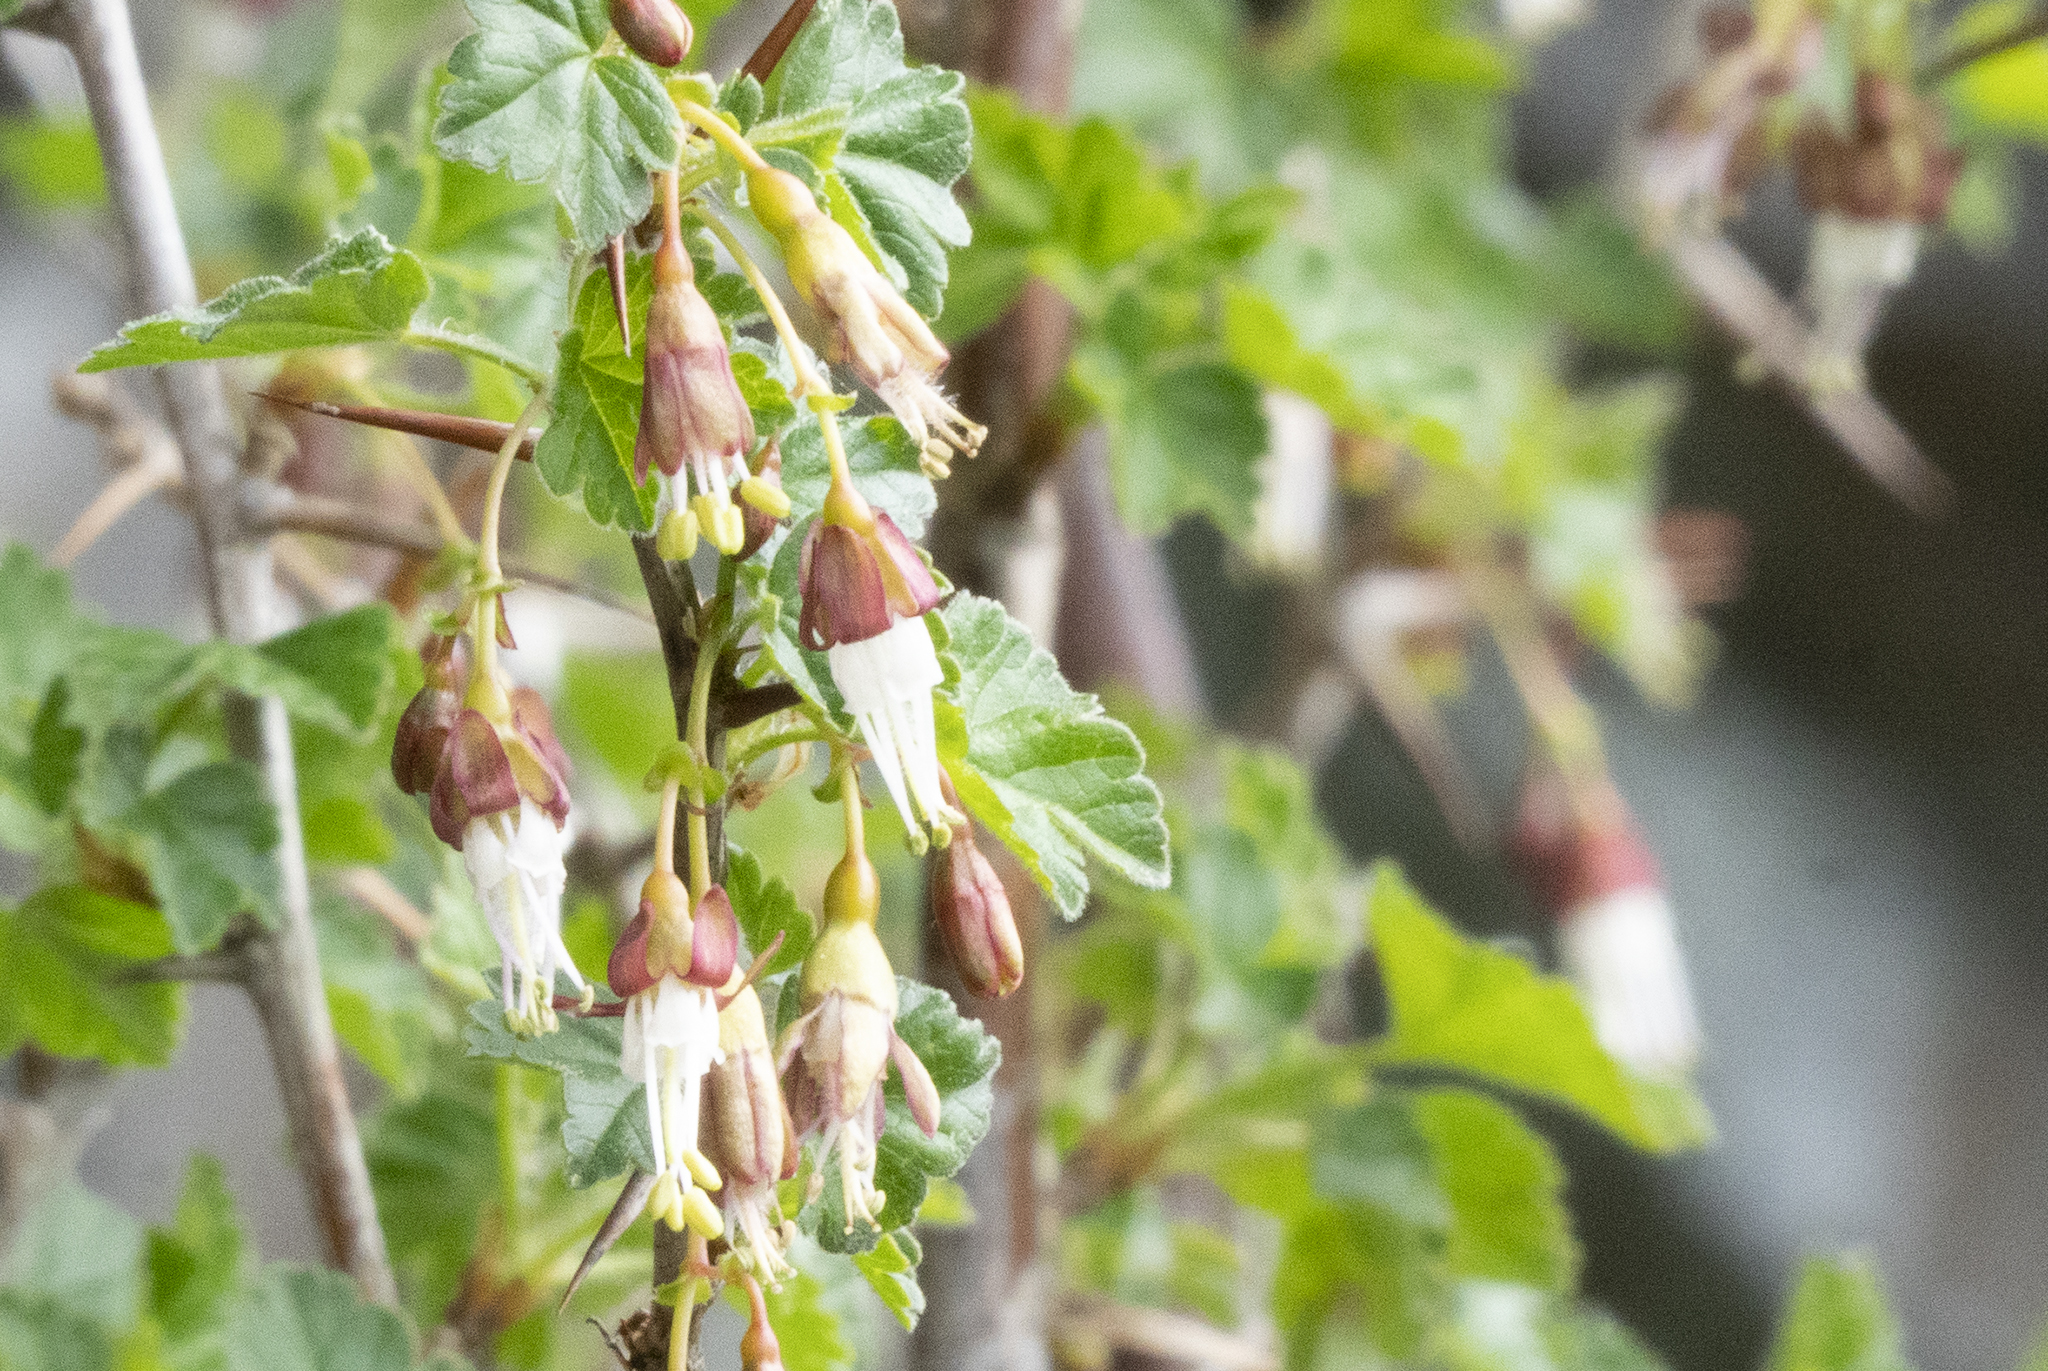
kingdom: Plantae
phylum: Tracheophyta
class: Magnoliopsida
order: Saxifragales
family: Grossulariaceae
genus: Ribes
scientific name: Ribes divaricatum
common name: Wild black gooseberry
